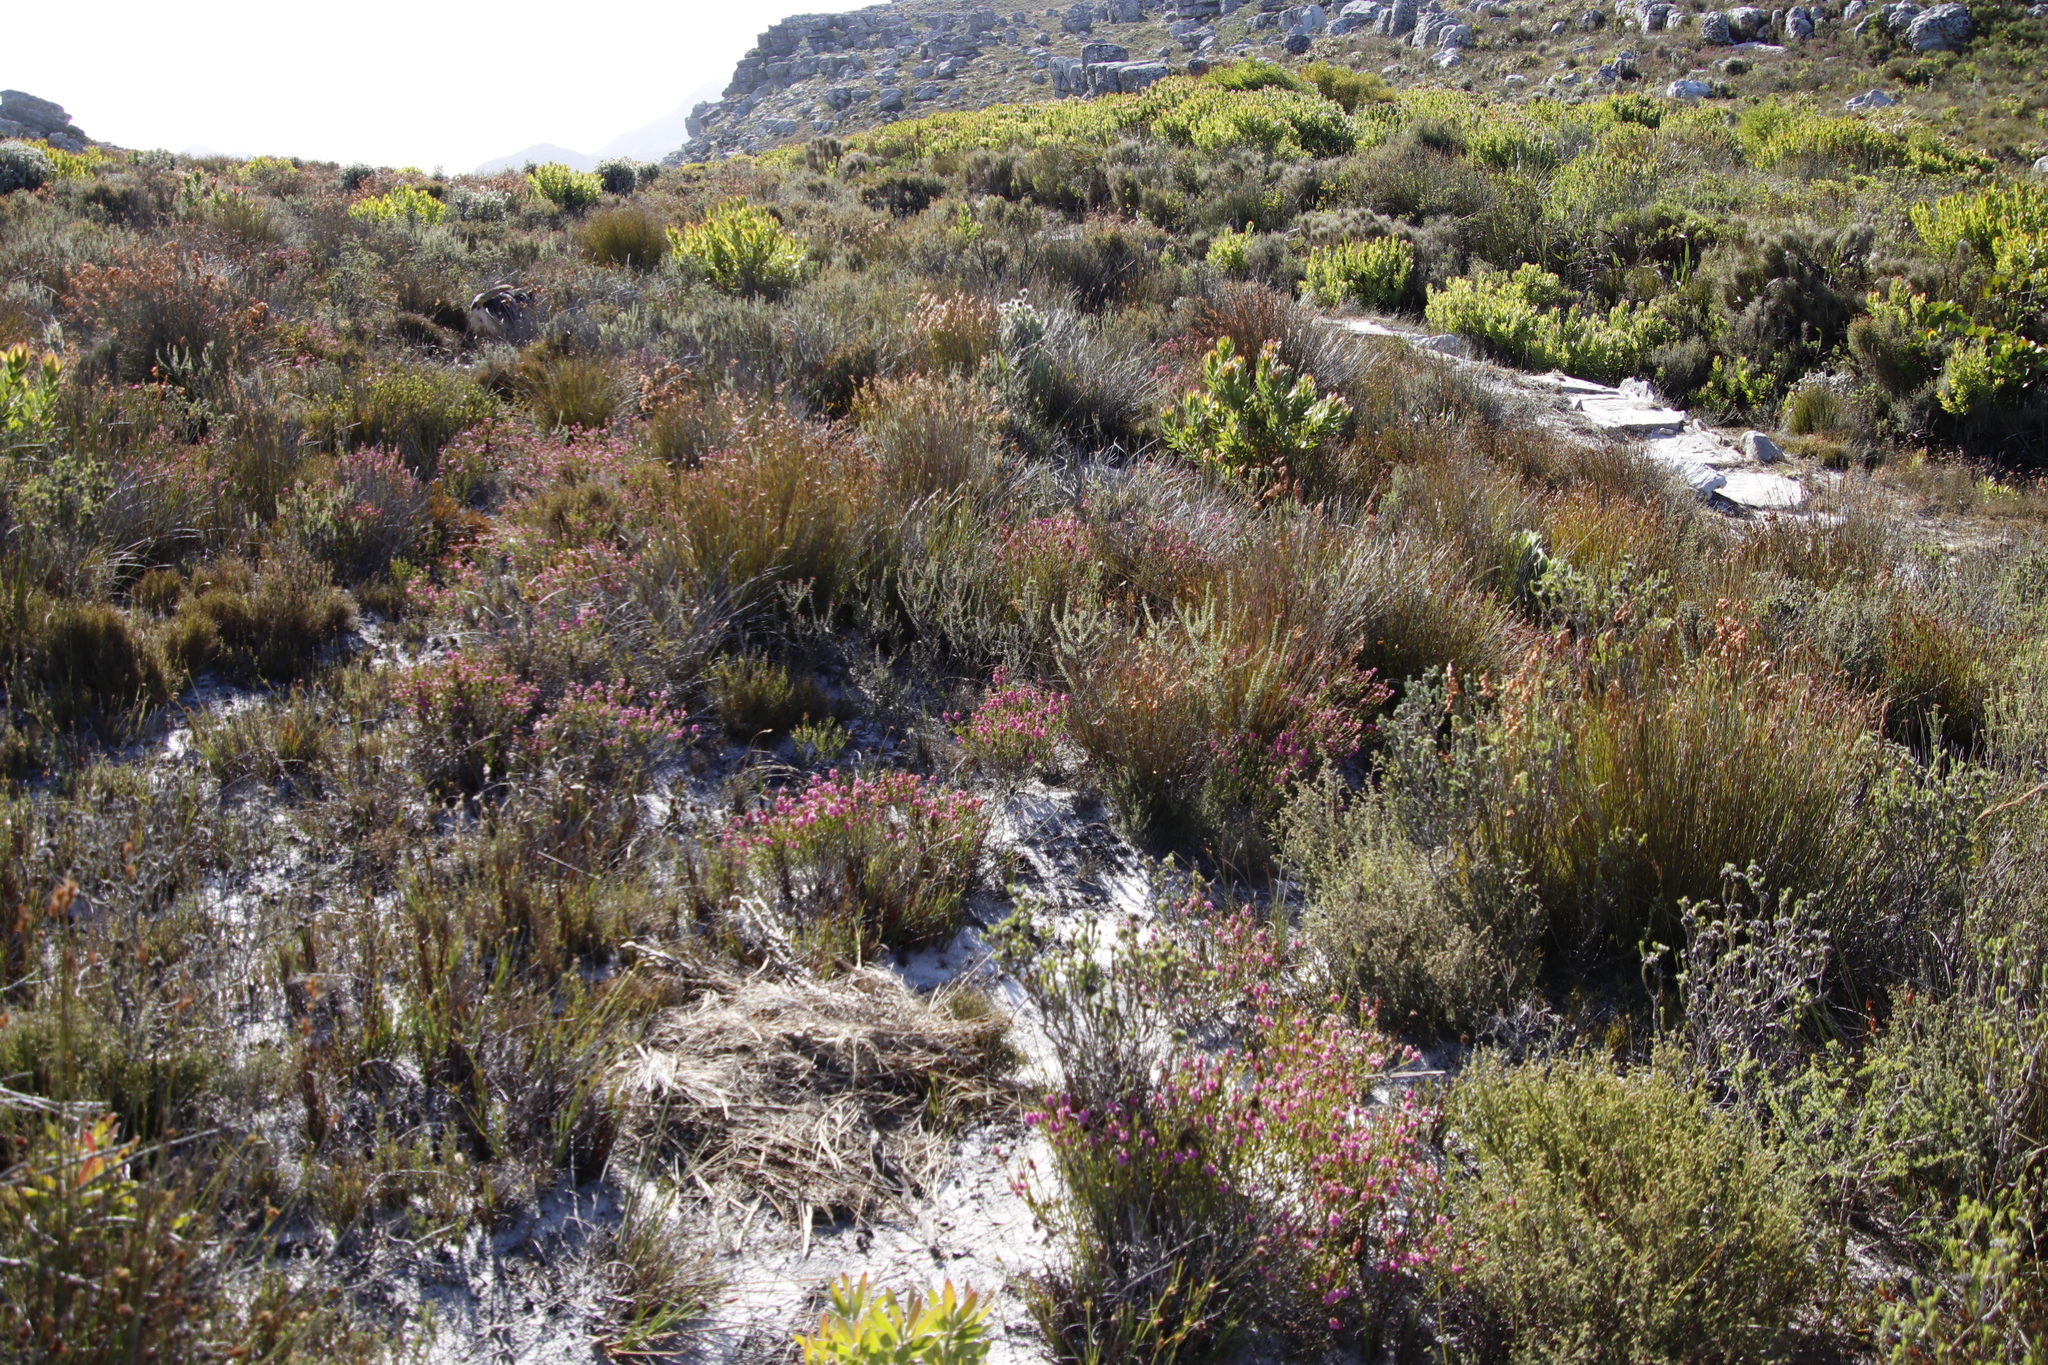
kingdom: Plantae
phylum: Tracheophyta
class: Magnoliopsida
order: Ericales
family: Ericaceae
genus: Erica
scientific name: Erica pulchella
